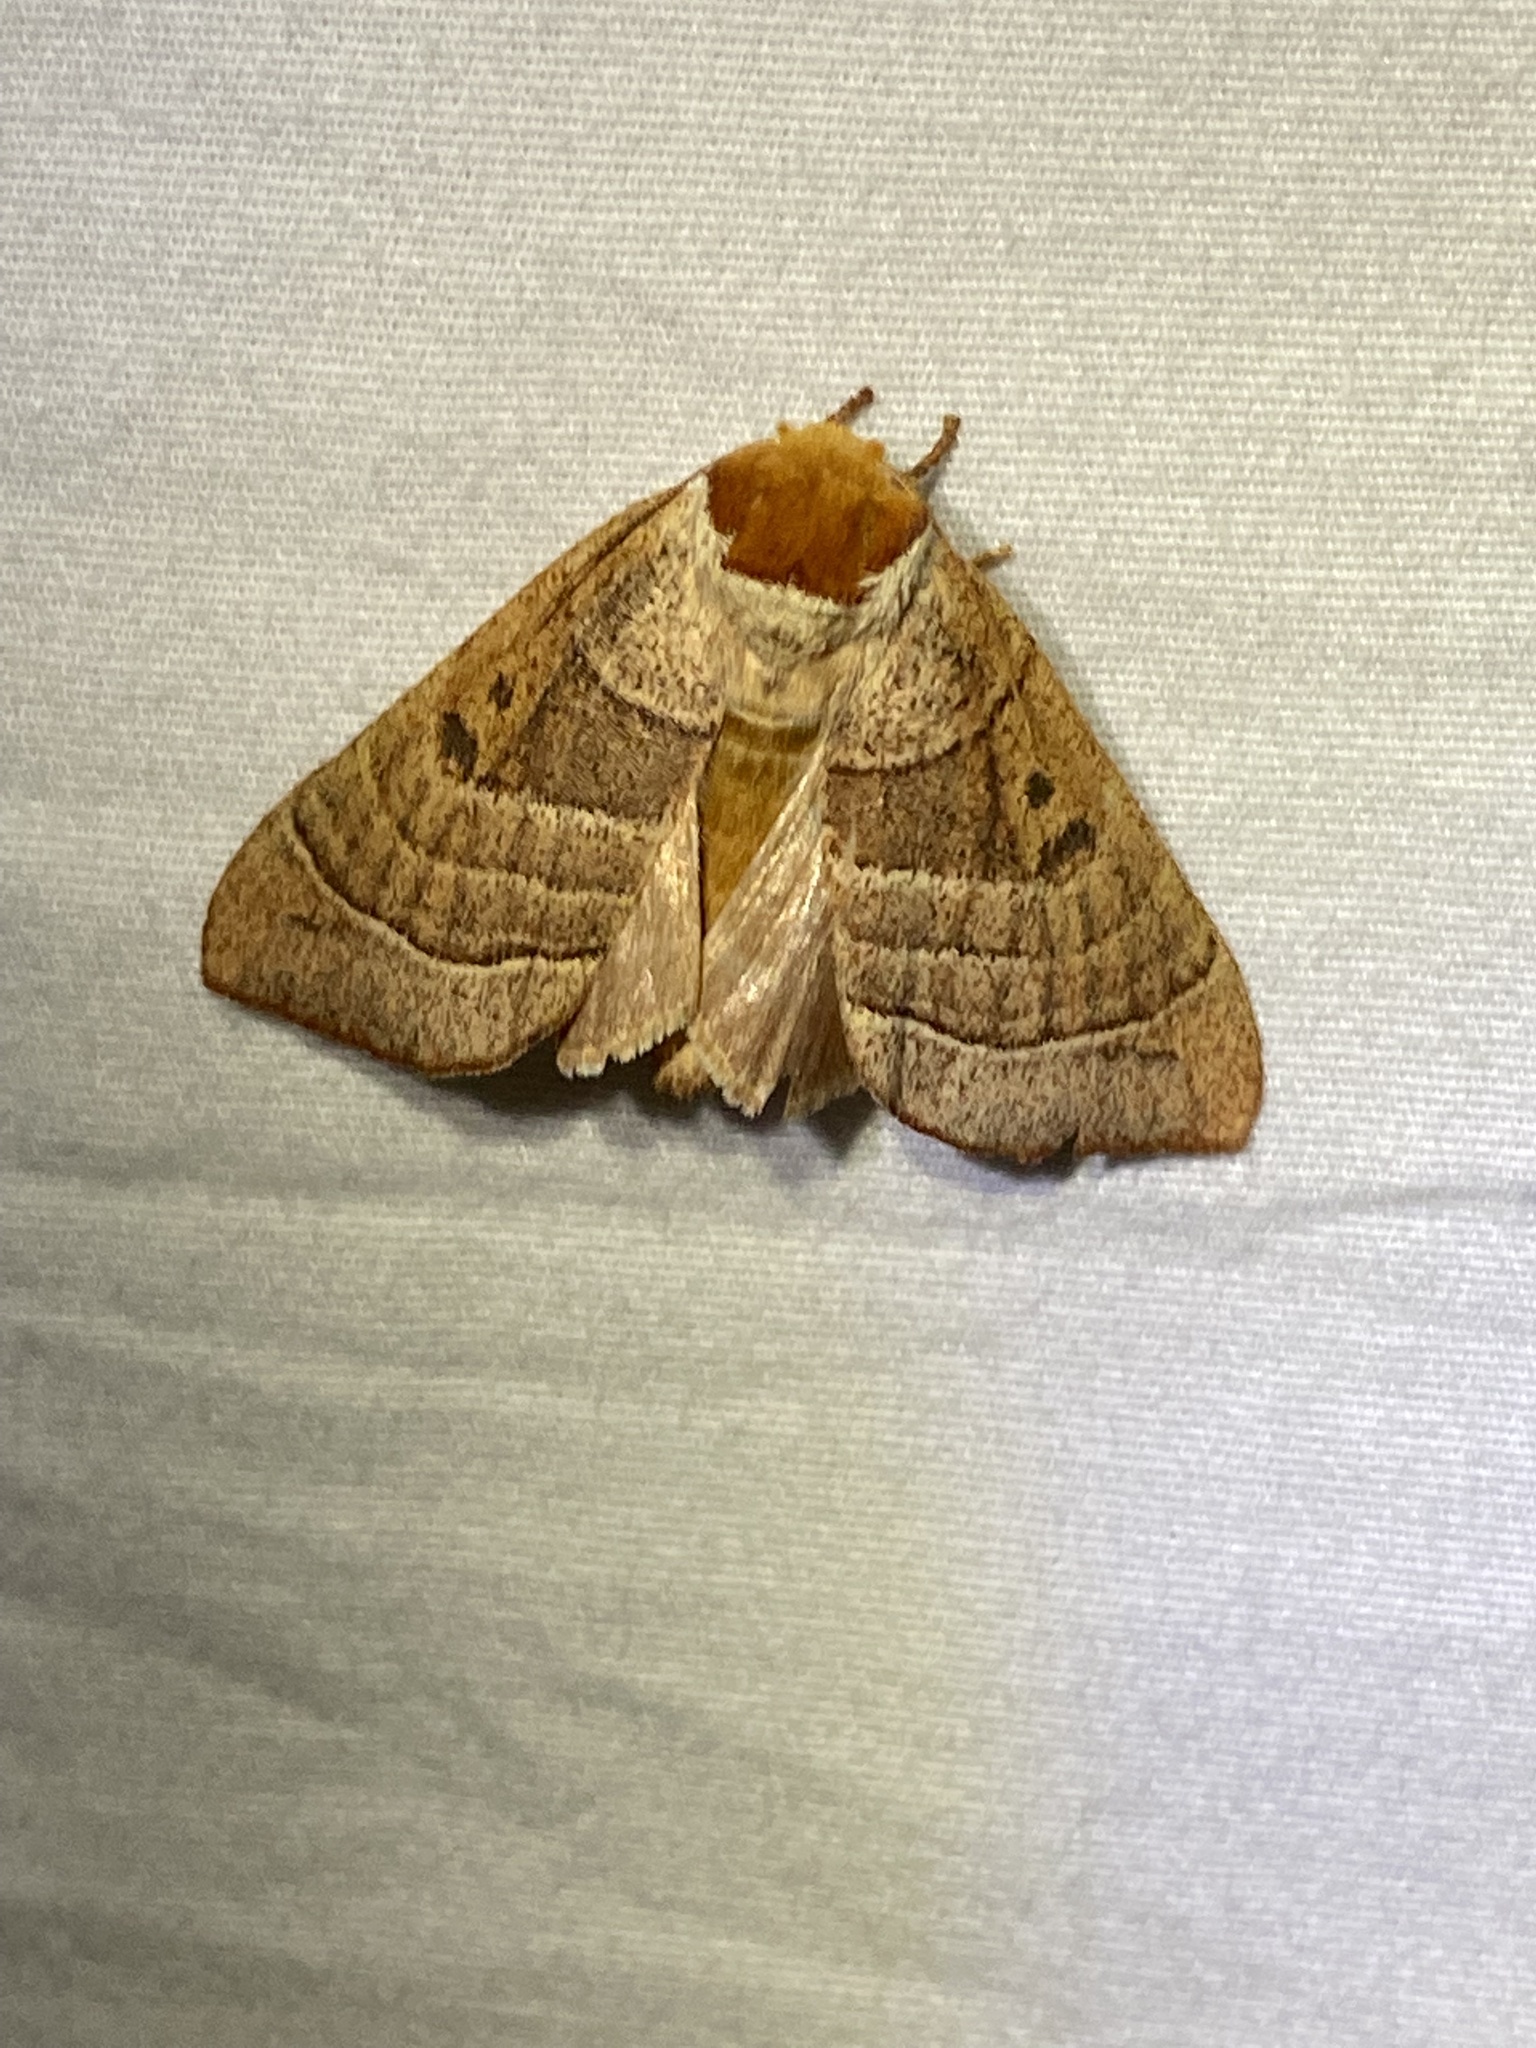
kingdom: Animalia
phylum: Arthropoda
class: Insecta
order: Lepidoptera
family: Notodontidae
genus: Datana
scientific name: Datana contracta
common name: Contracted datana
